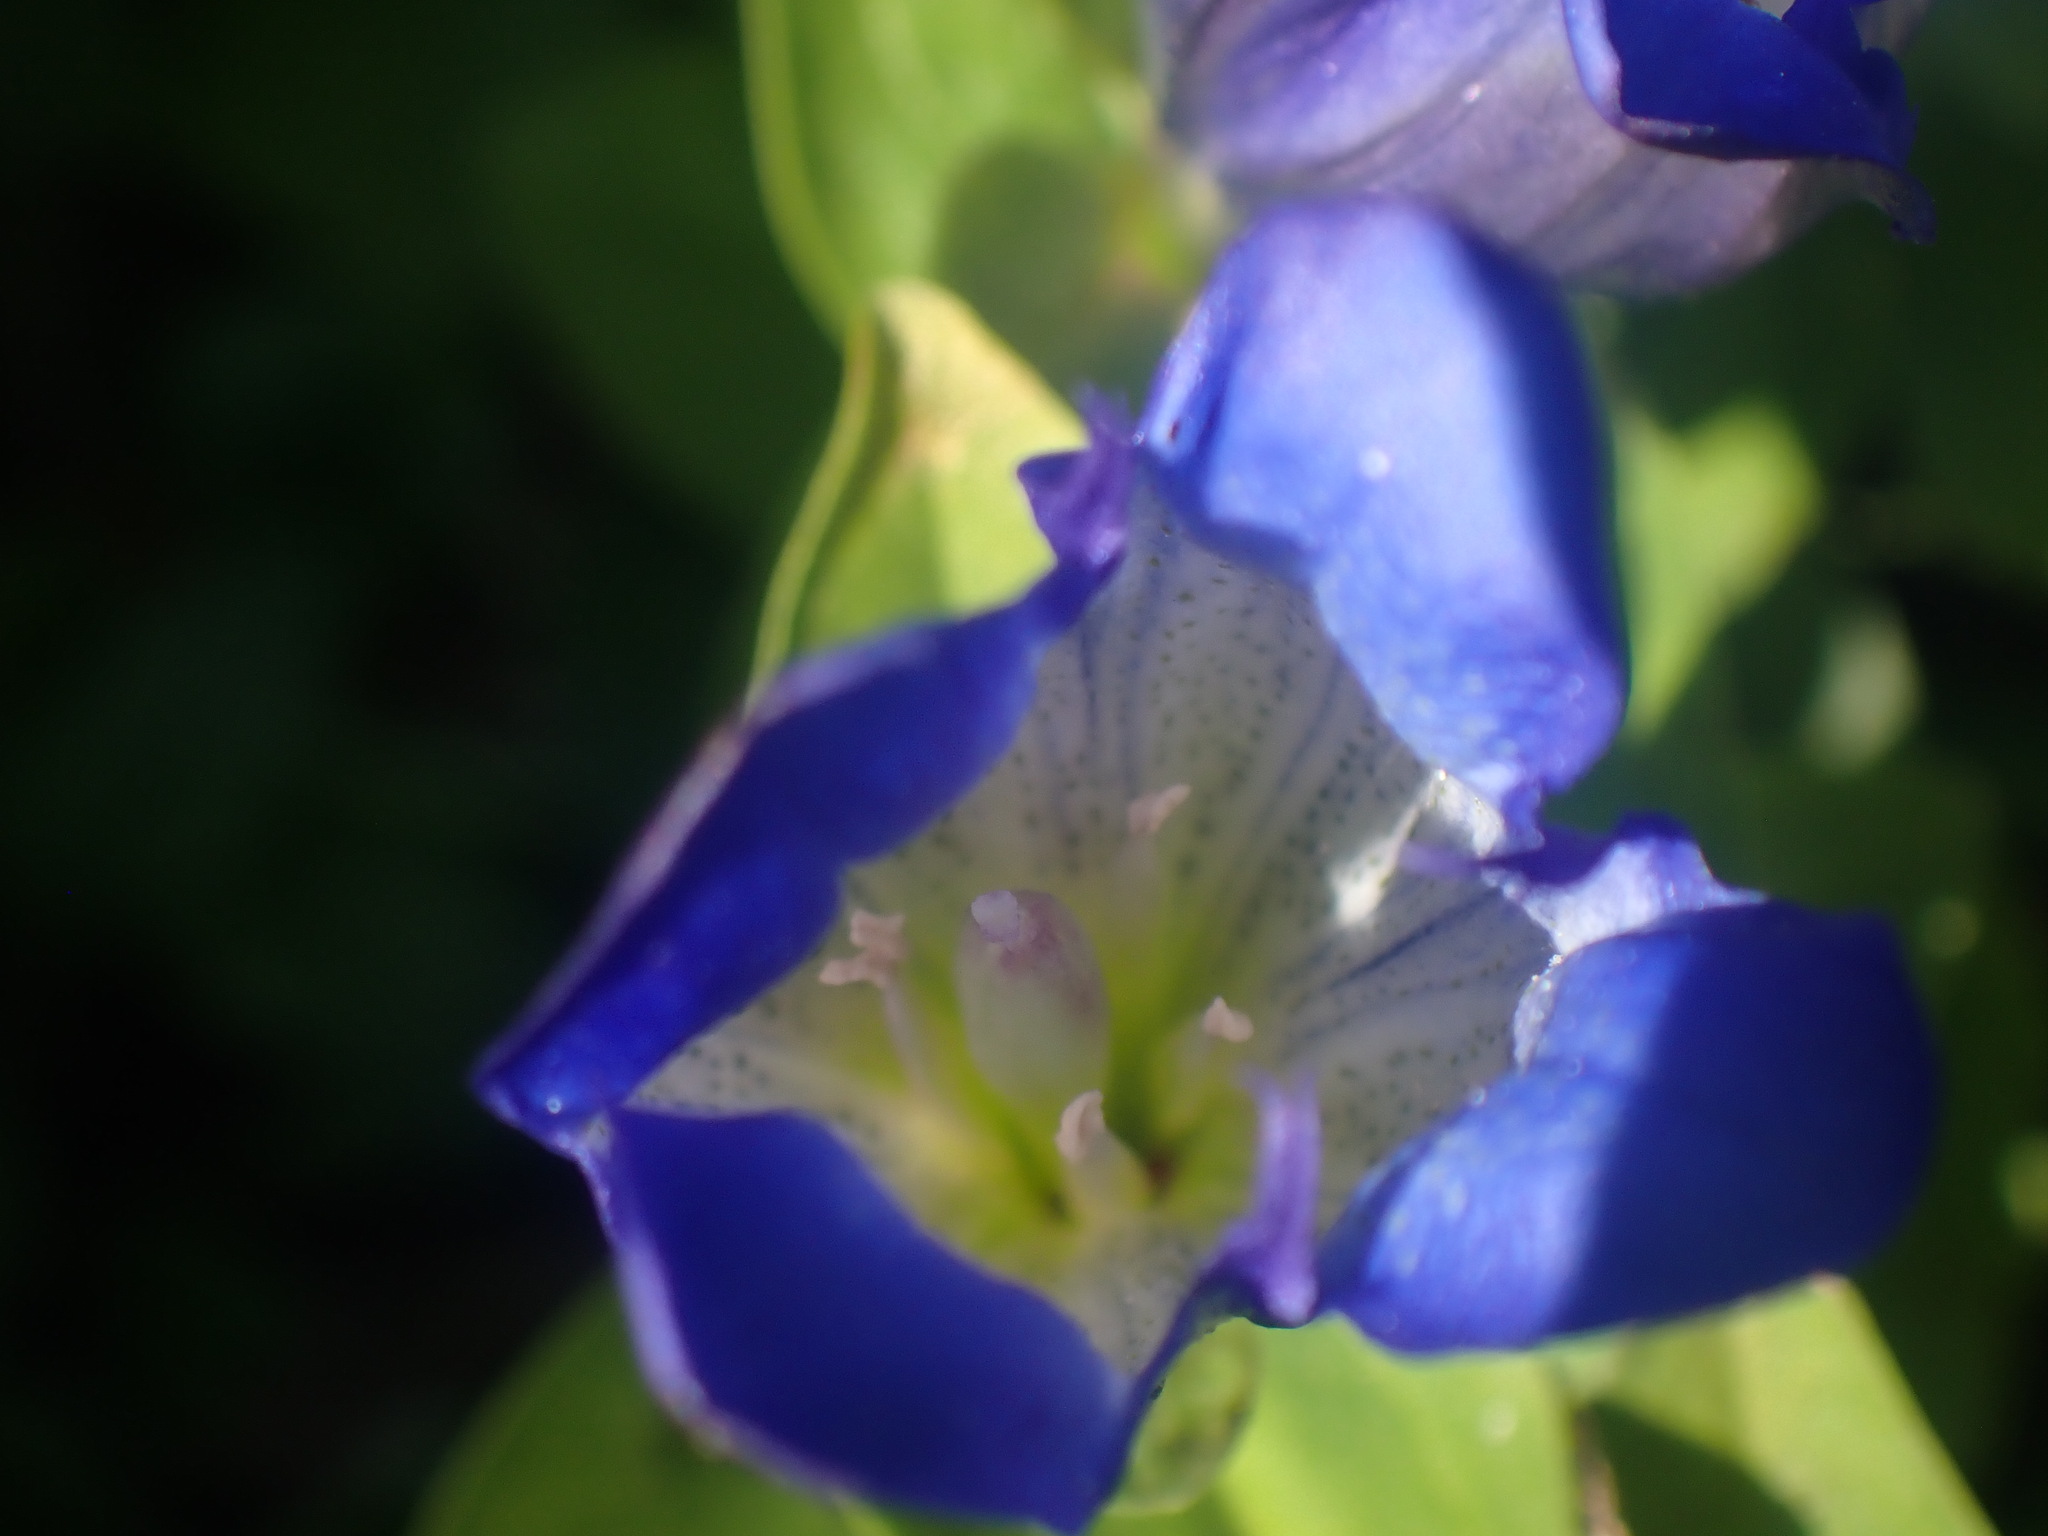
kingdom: Plantae
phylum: Tracheophyta
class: Magnoliopsida
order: Gentianales
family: Gentianaceae
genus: Gentiana
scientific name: Gentiana calycosa
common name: Rainier pleated gentian
